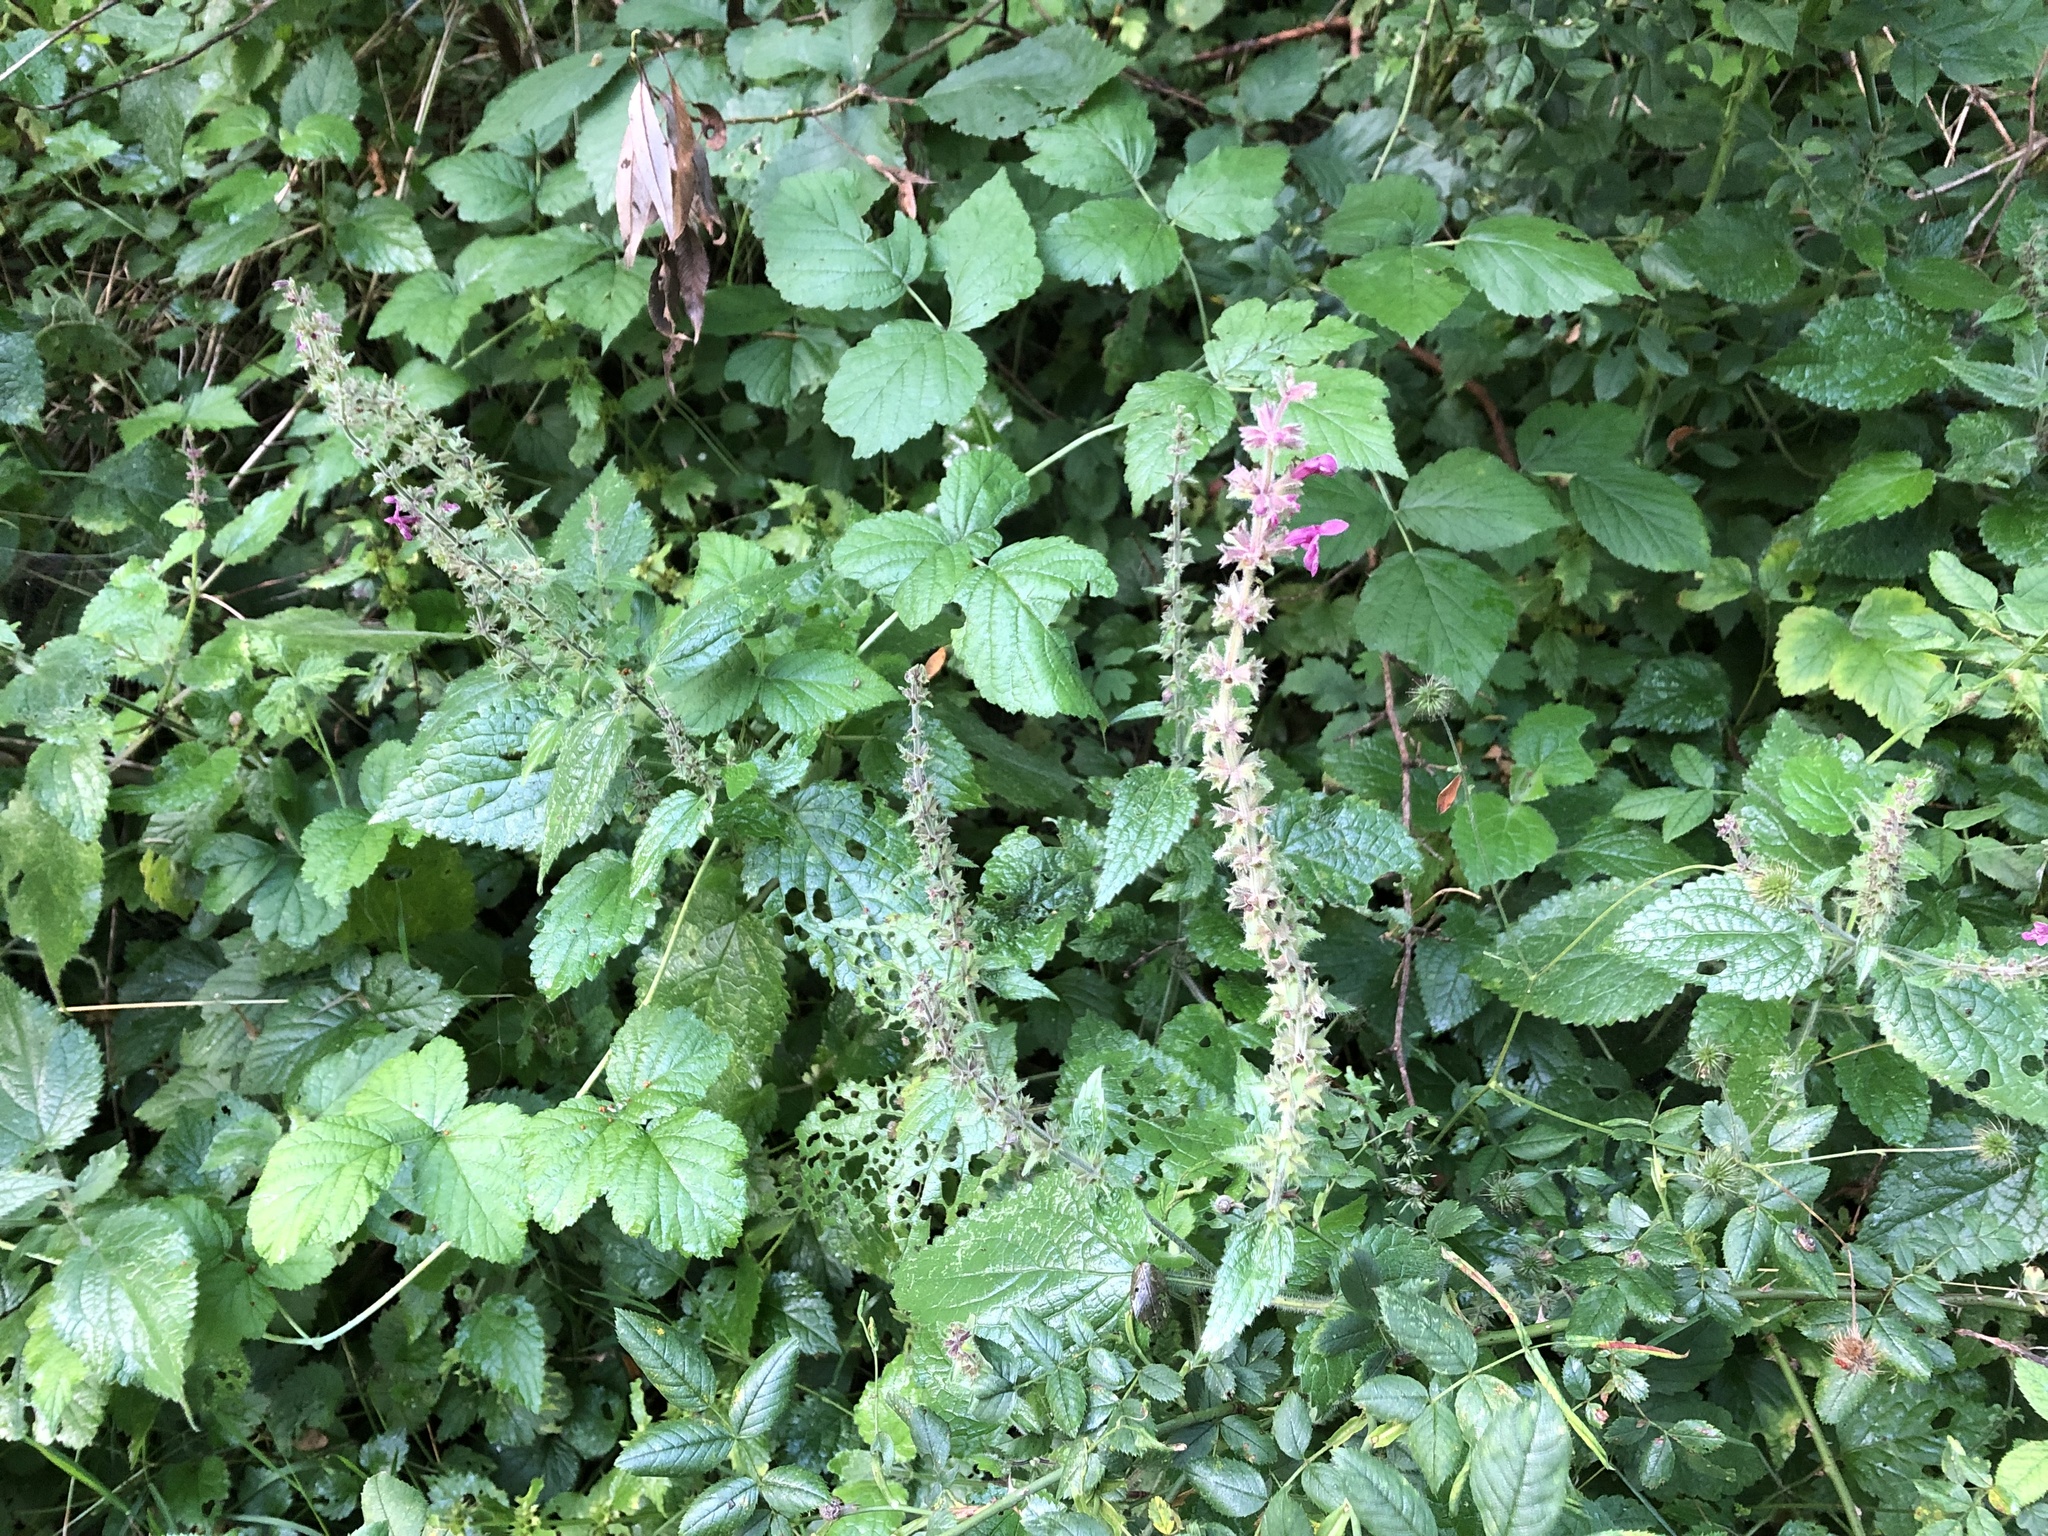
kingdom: Plantae
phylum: Tracheophyta
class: Magnoliopsida
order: Lamiales
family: Lamiaceae
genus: Stachys
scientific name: Stachys sylvatica
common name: Hedge woundwort
